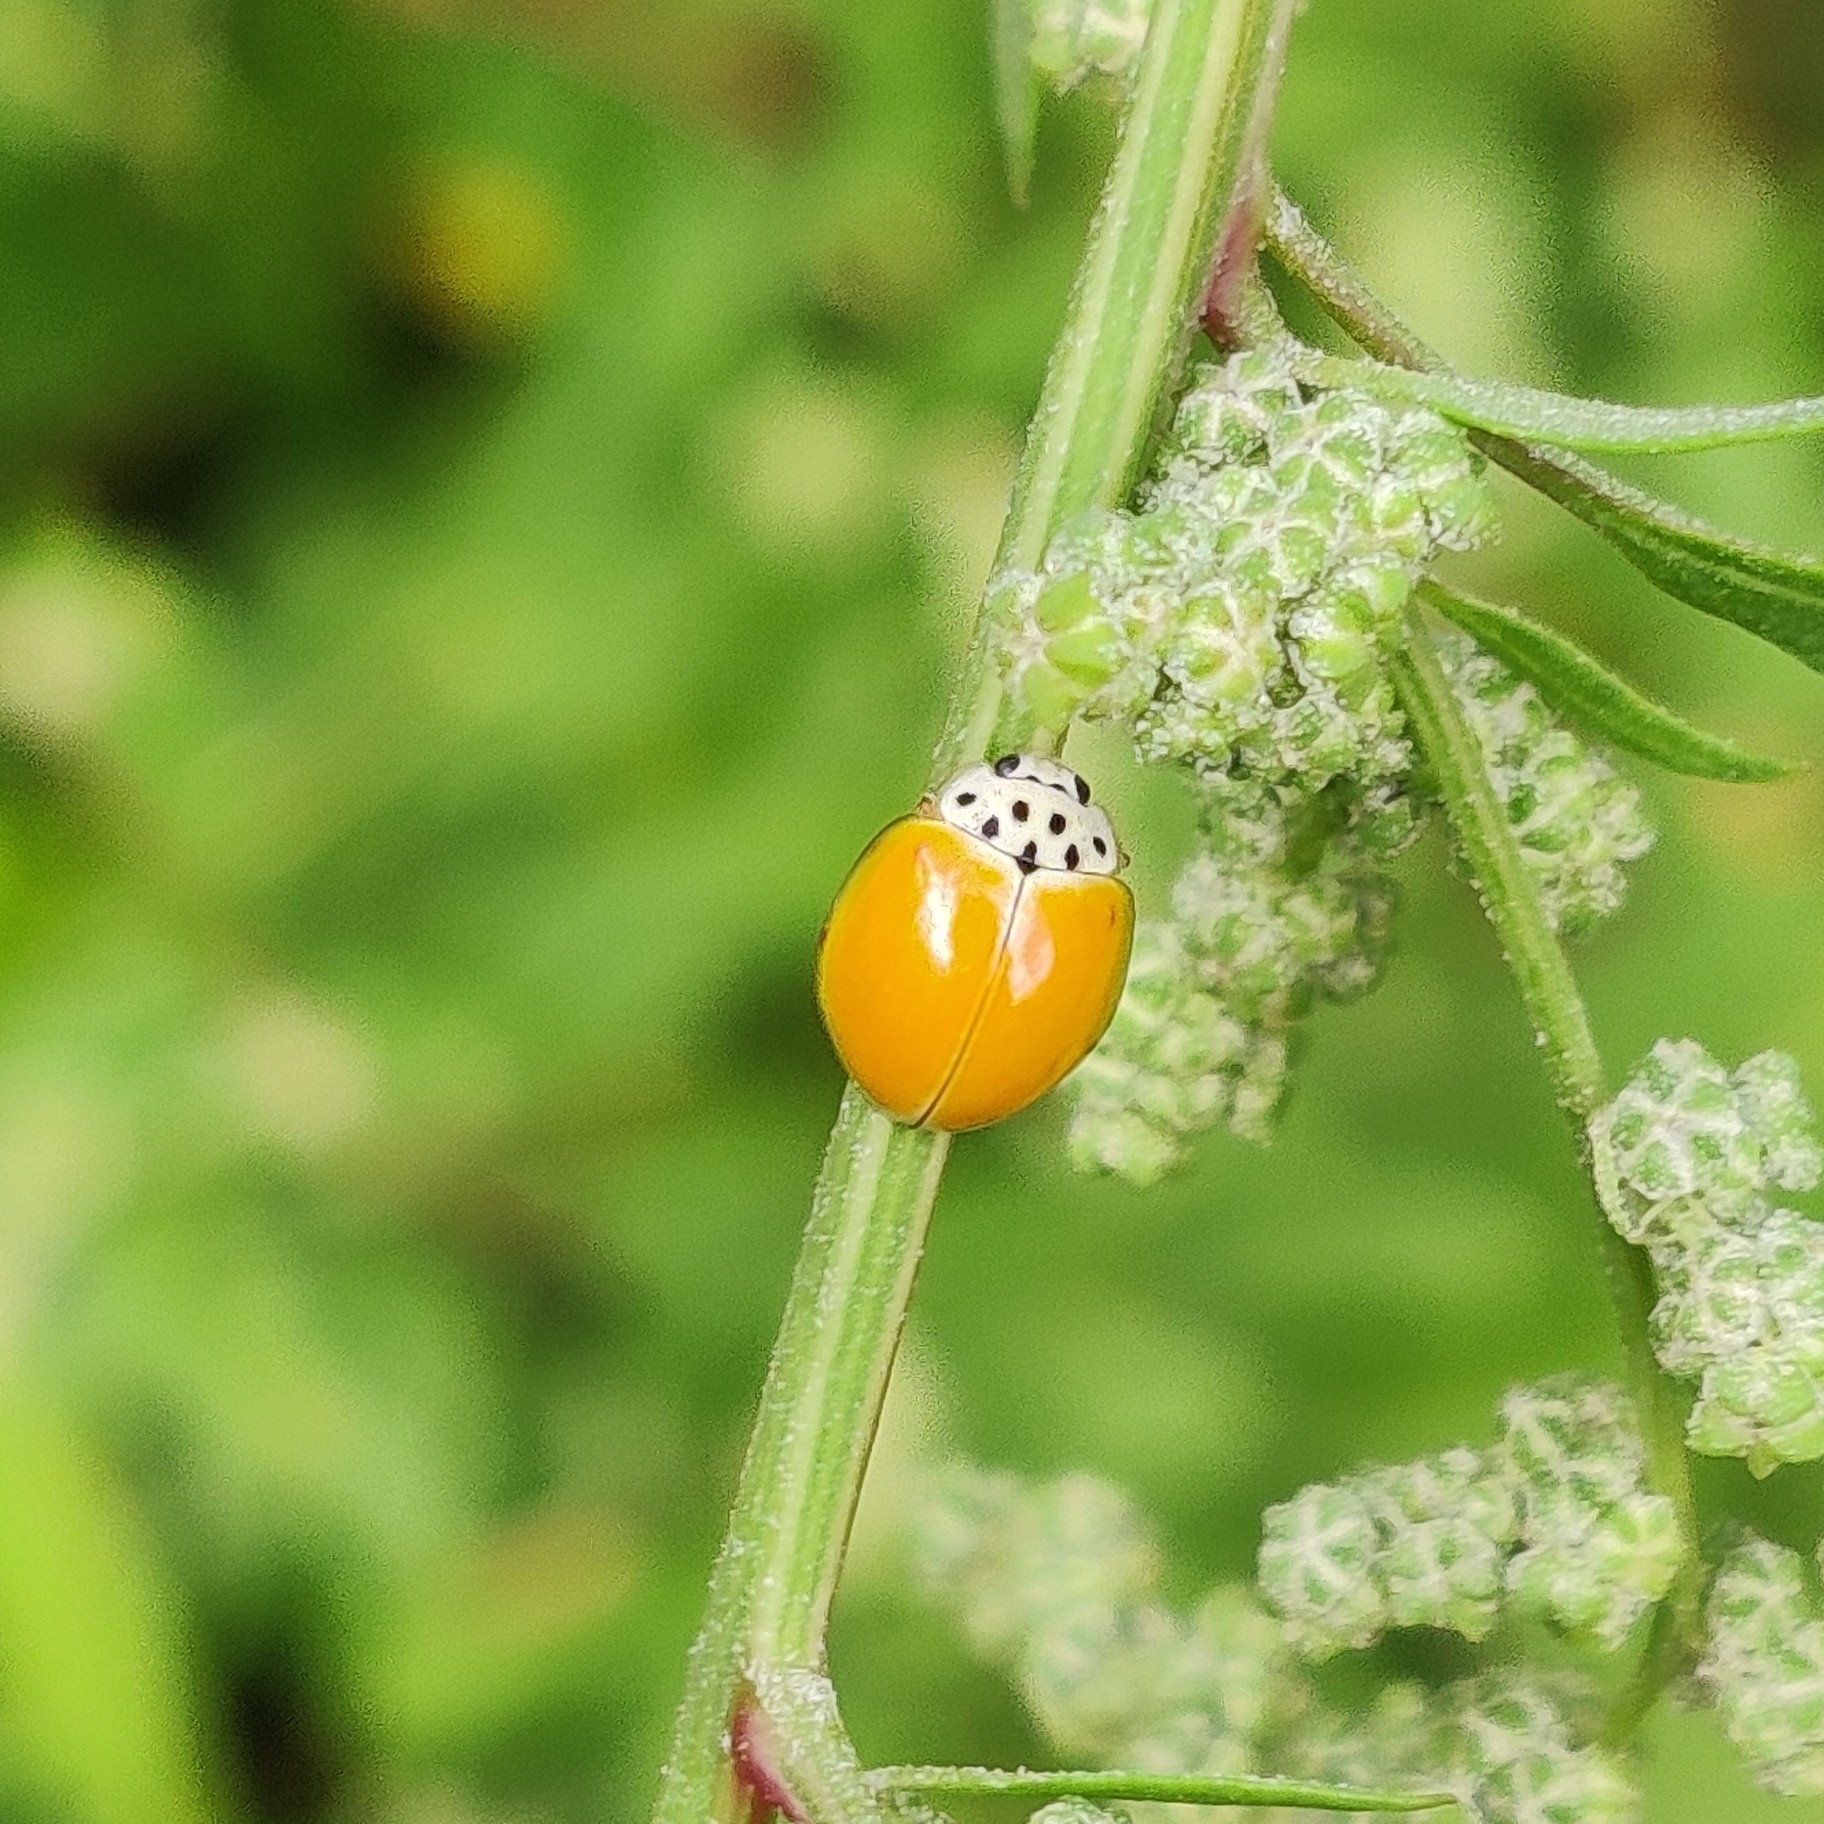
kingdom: Animalia
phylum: Arthropoda
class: Insecta
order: Coleoptera
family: Coccinellidae
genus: Oenopia
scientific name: Oenopia
